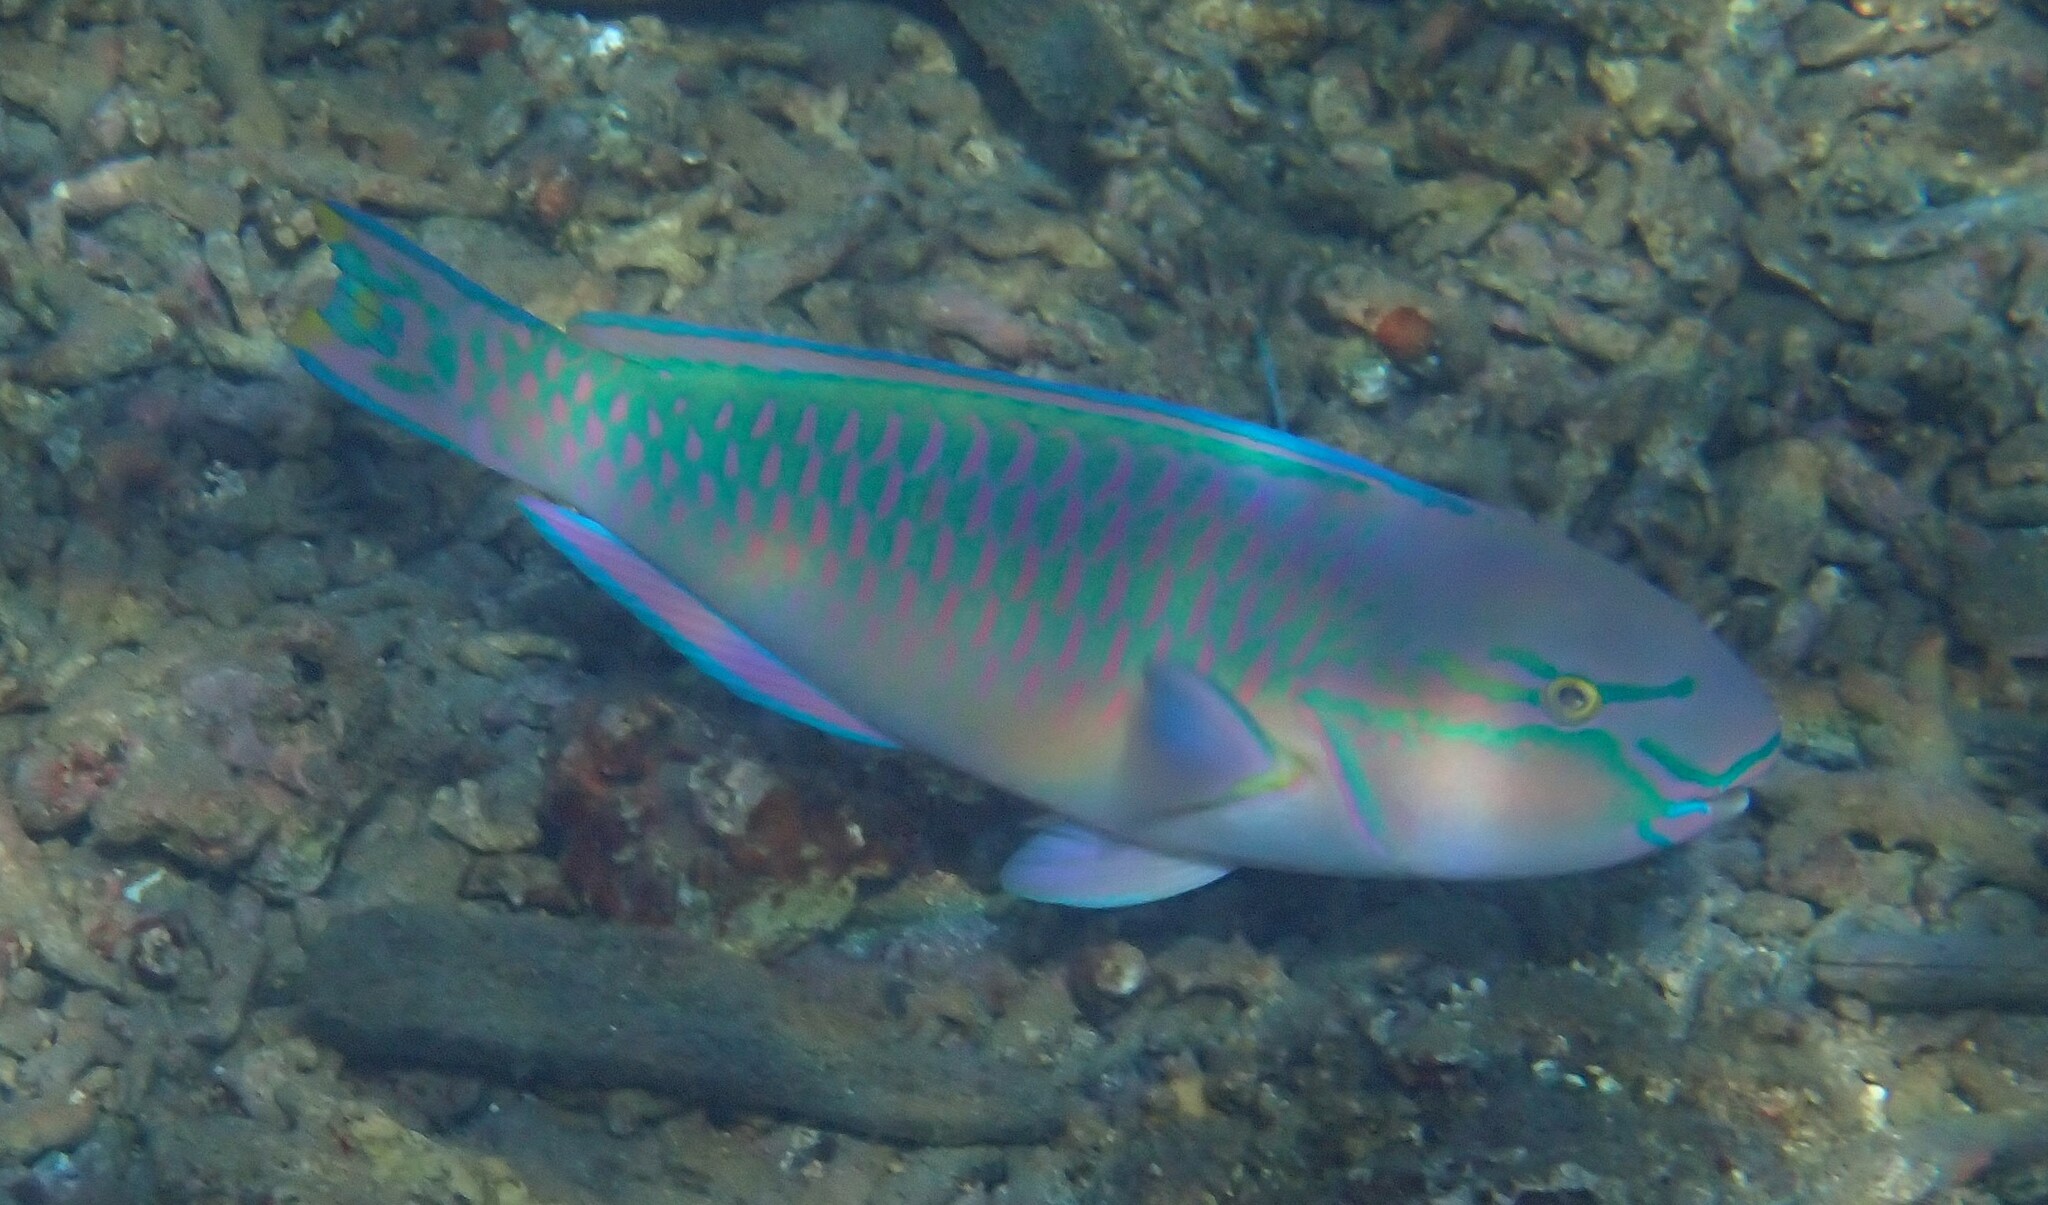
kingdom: Animalia
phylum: Chordata
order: Perciformes
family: Scaridae
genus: Chlorurus
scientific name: Chlorurus capistratoides
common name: Pink-margined parrotfish
